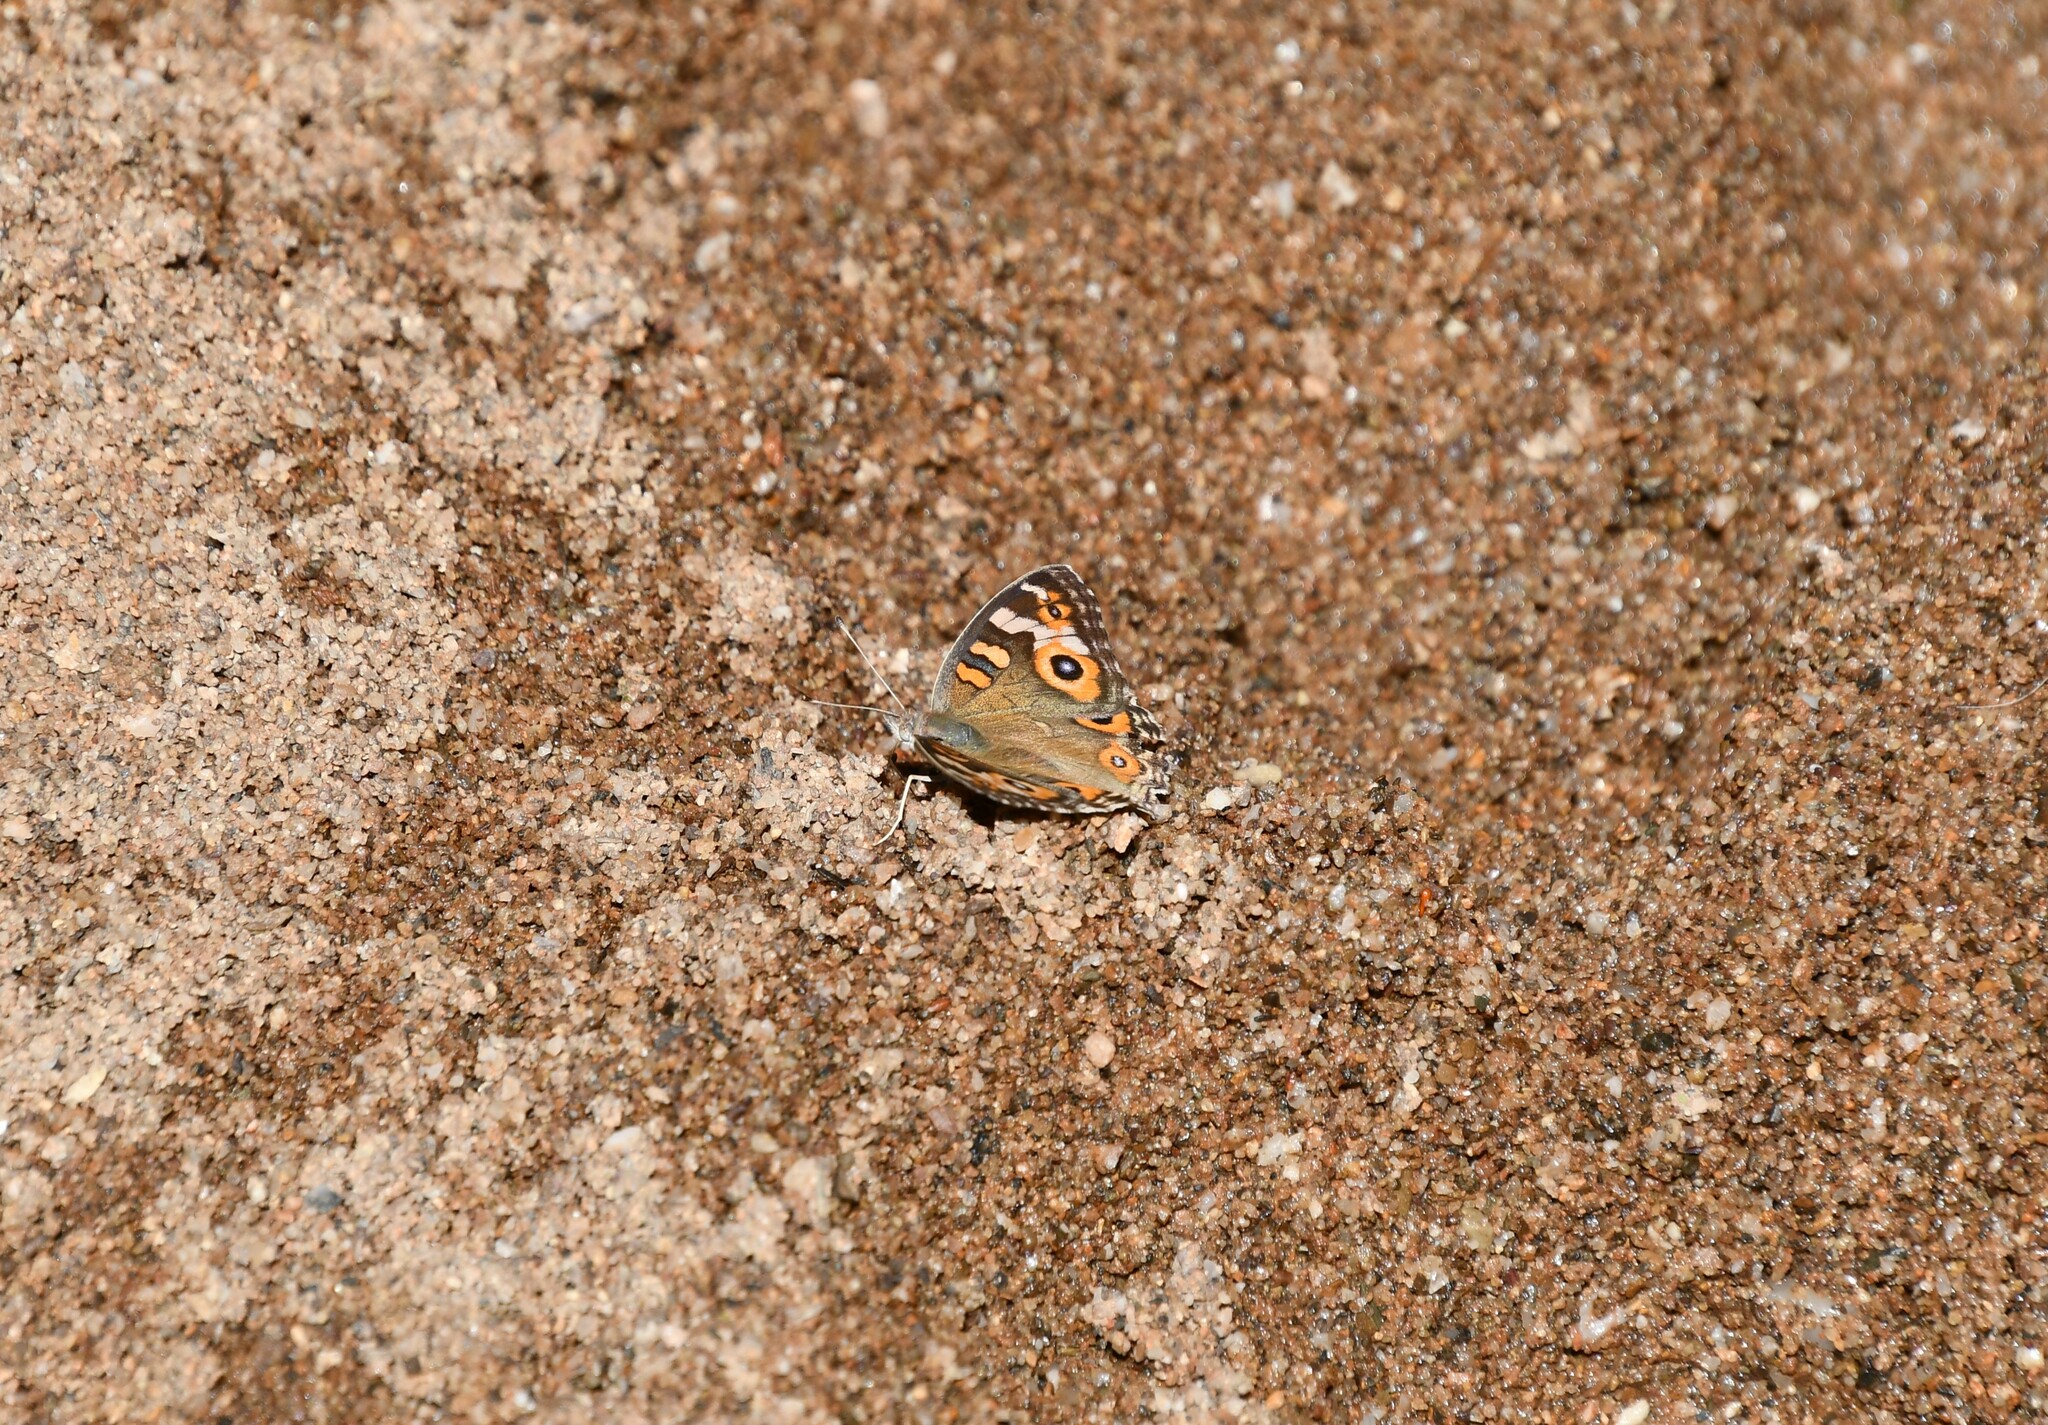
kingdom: Animalia
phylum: Arthropoda
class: Insecta
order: Lepidoptera
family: Nymphalidae
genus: Junonia
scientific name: Junonia villida
